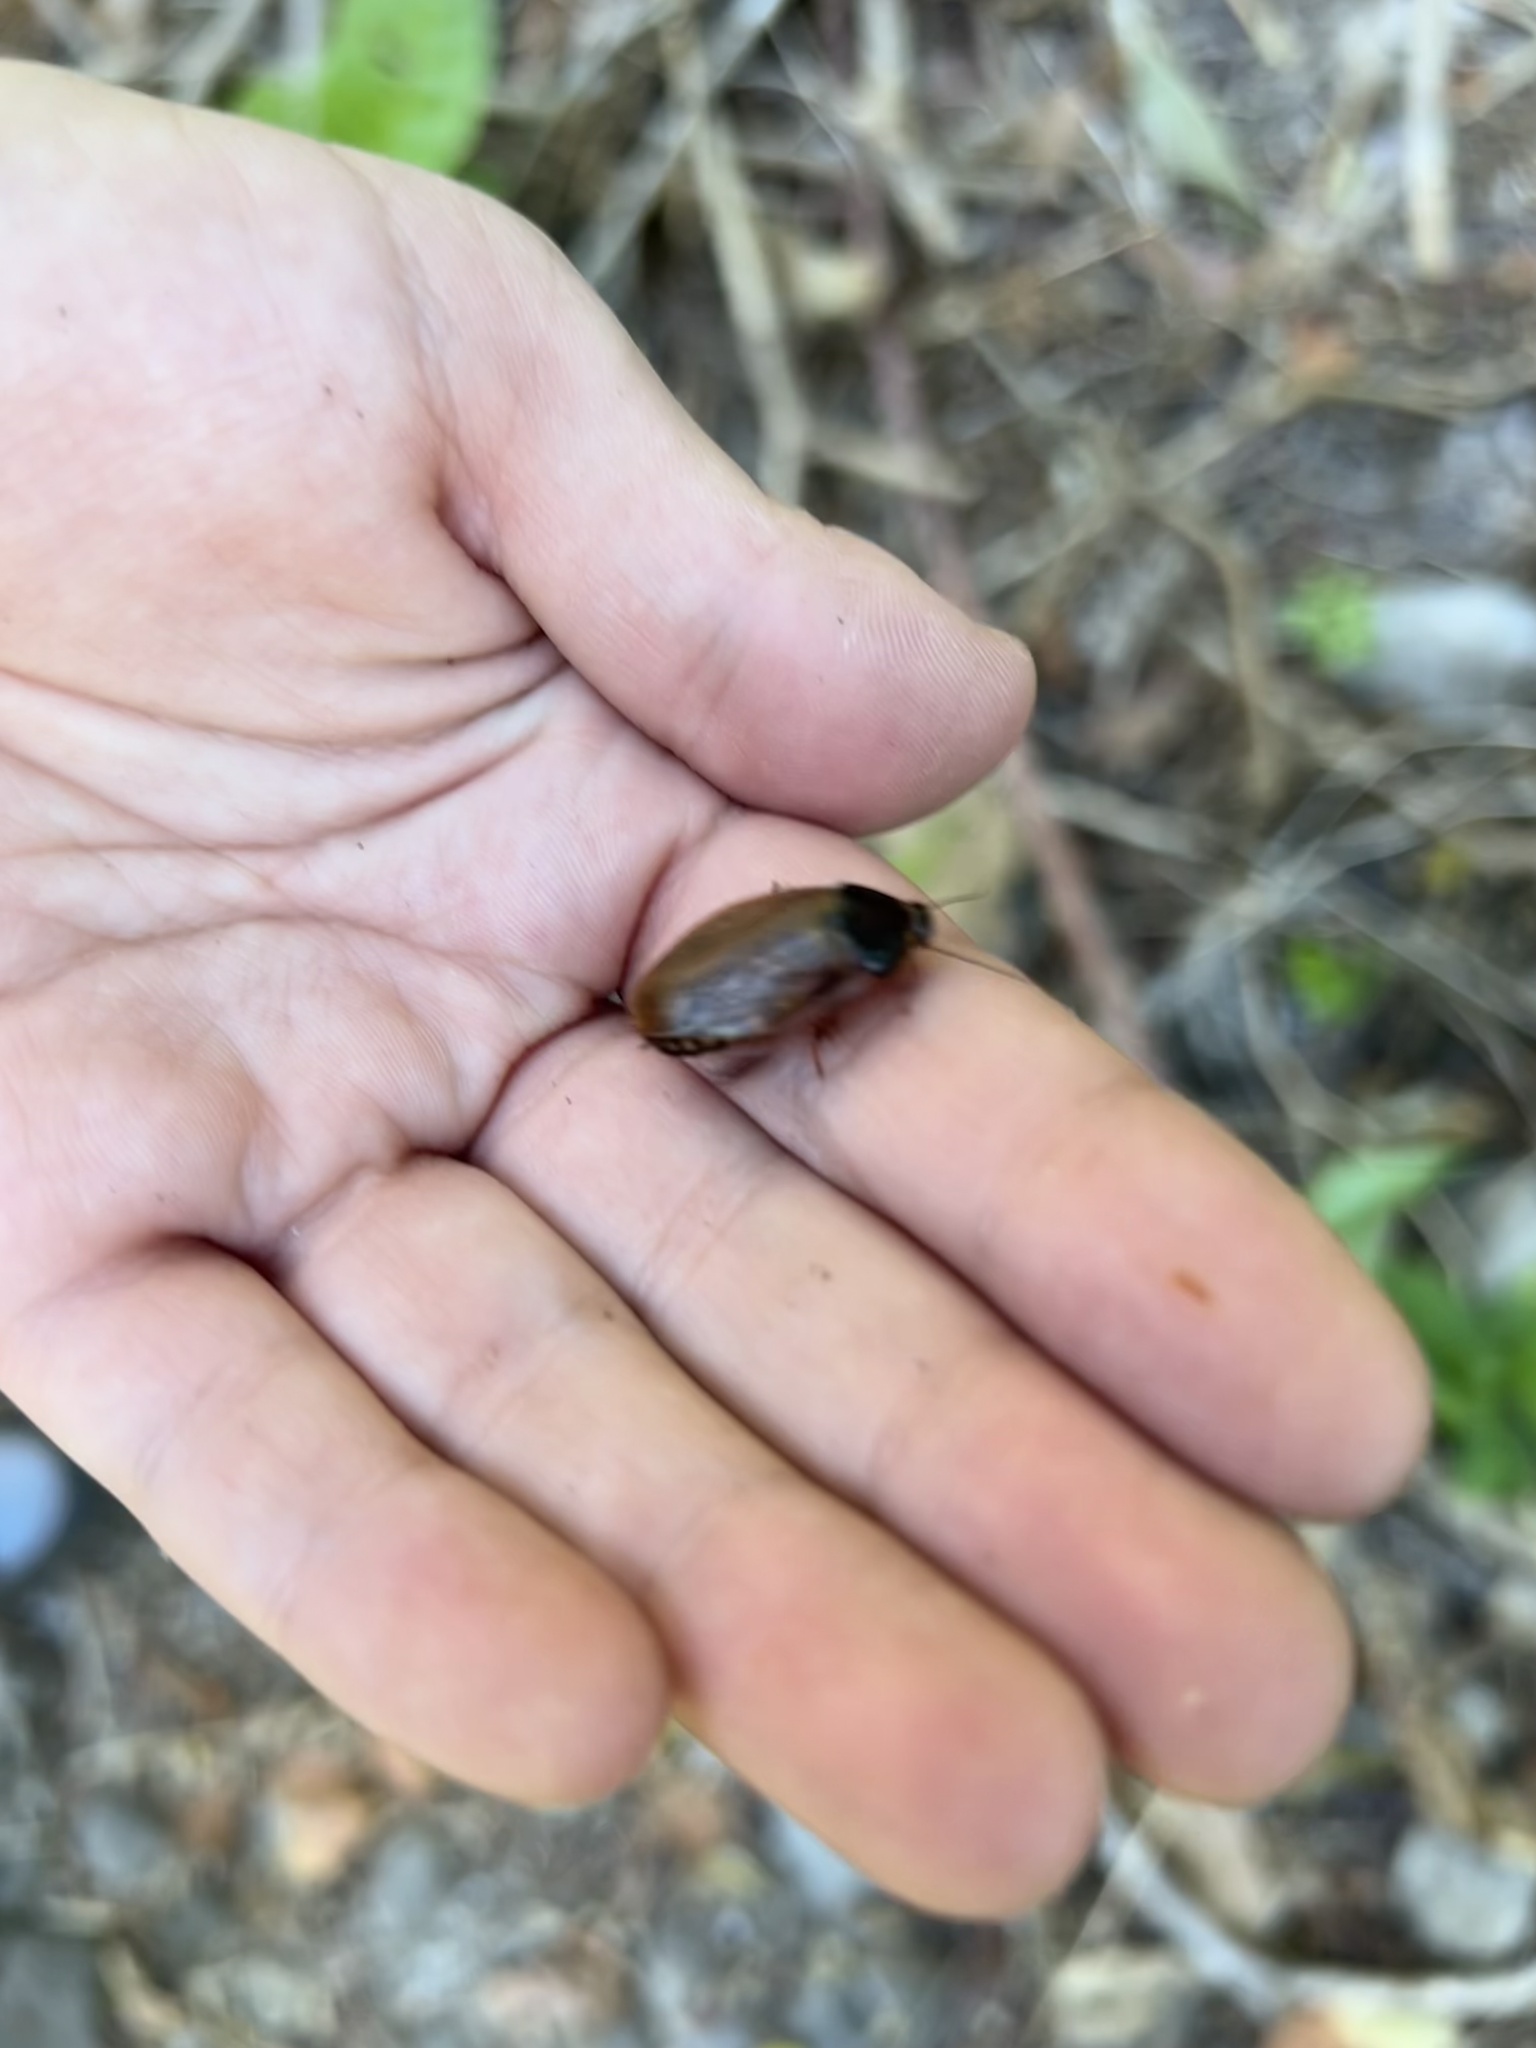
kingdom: Animalia
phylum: Arthropoda
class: Insecta
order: Blattodea
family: Blaberidae
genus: Pycnoscelus
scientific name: Pycnoscelus surinamensis
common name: Surinam cockroach
